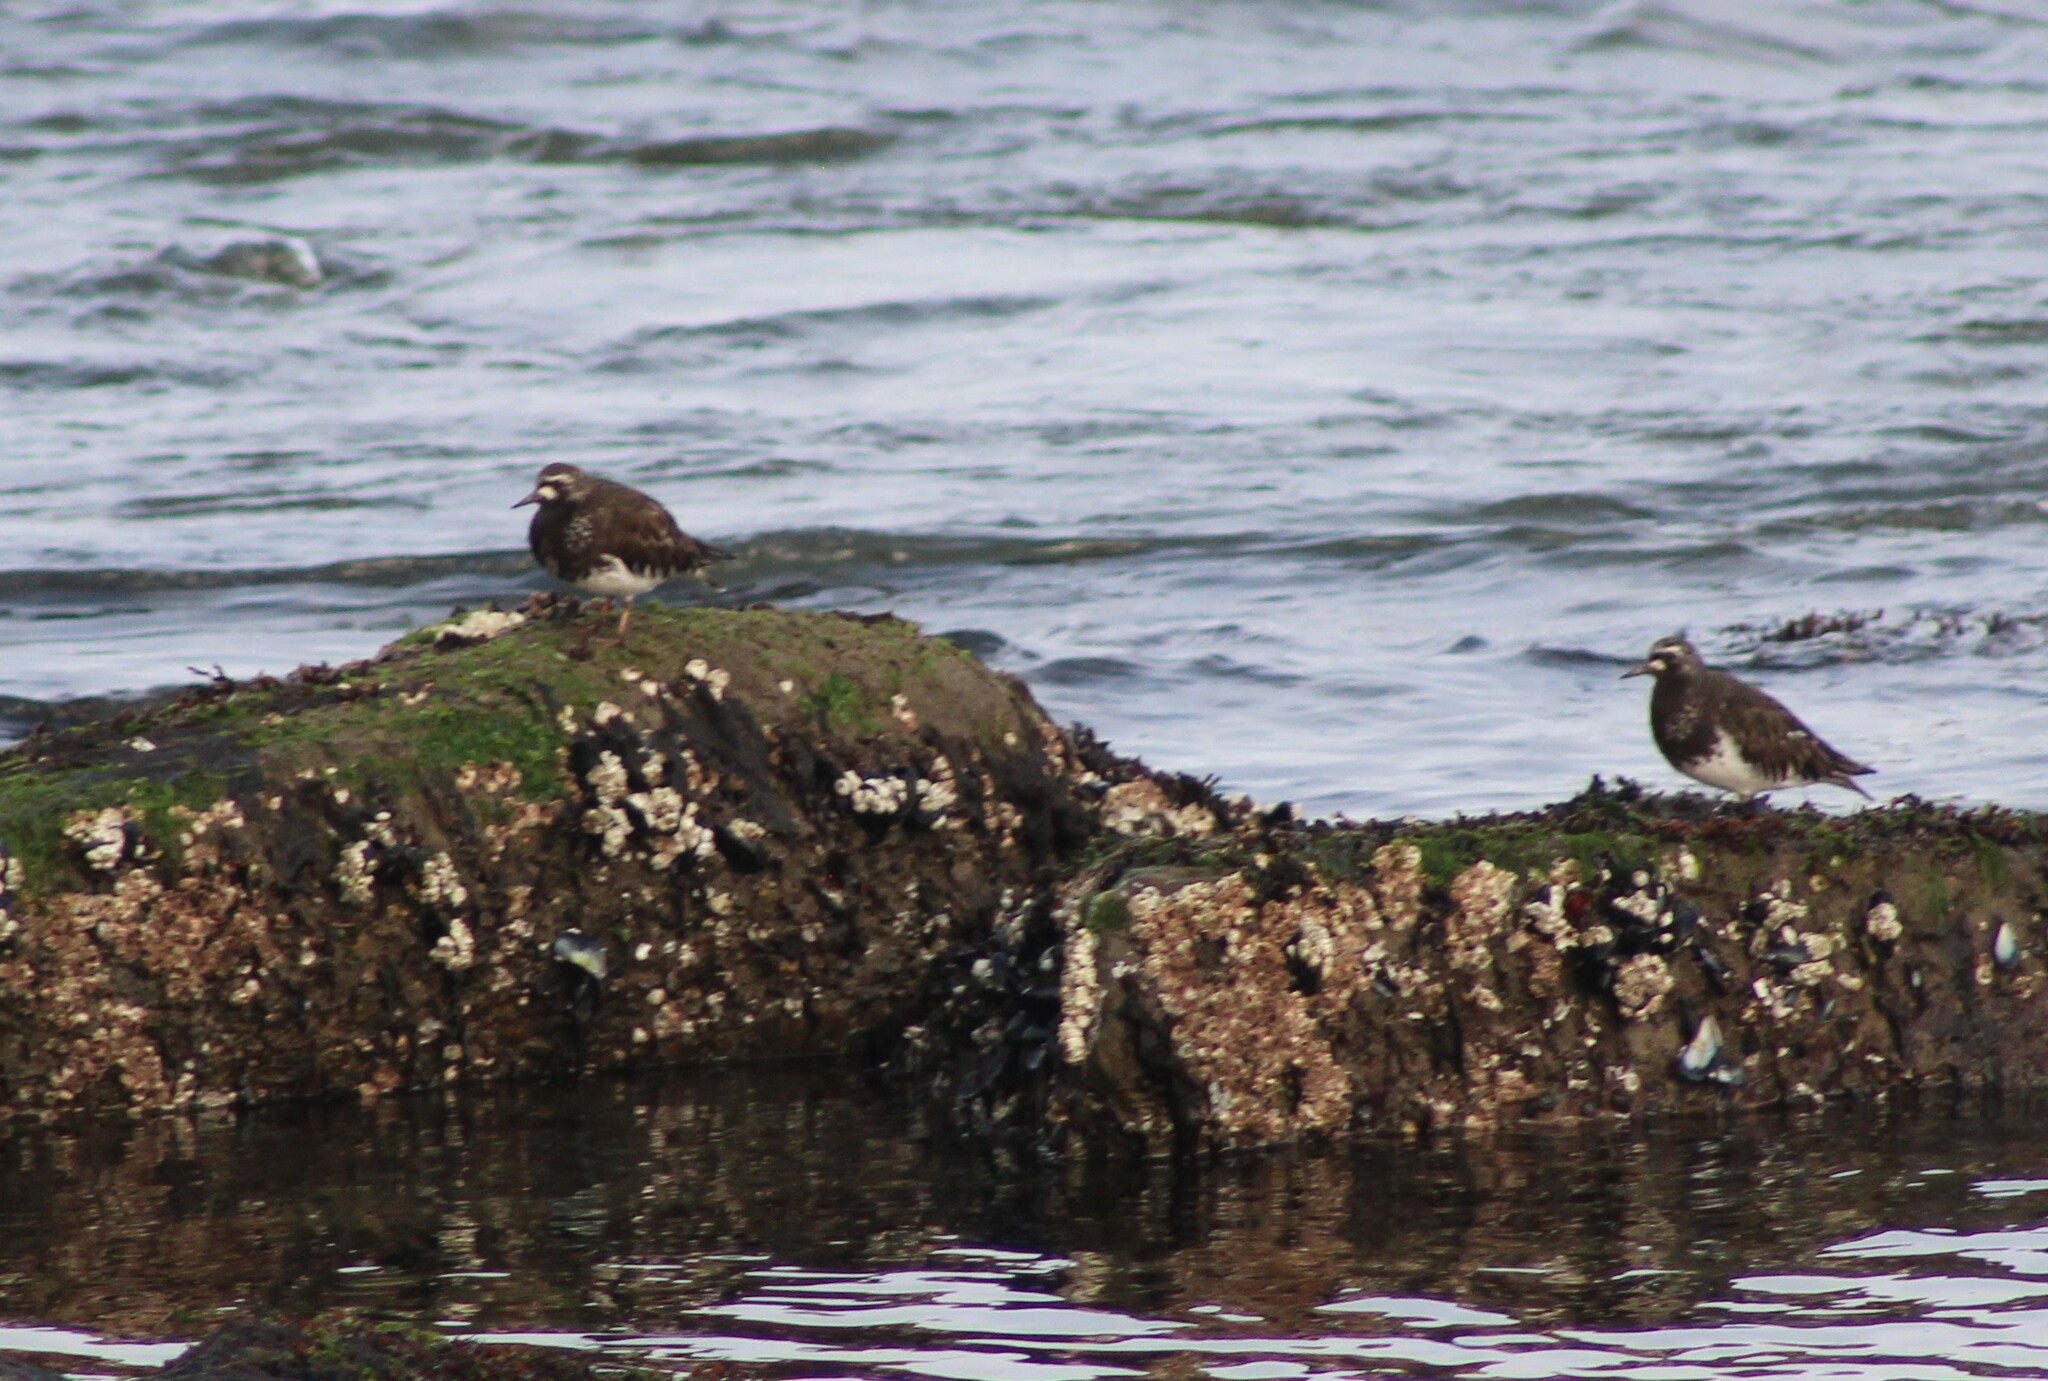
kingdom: Animalia
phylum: Chordata
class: Aves
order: Charadriiformes
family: Scolopacidae
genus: Arenaria
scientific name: Arenaria melanocephala
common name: Black turnstone
